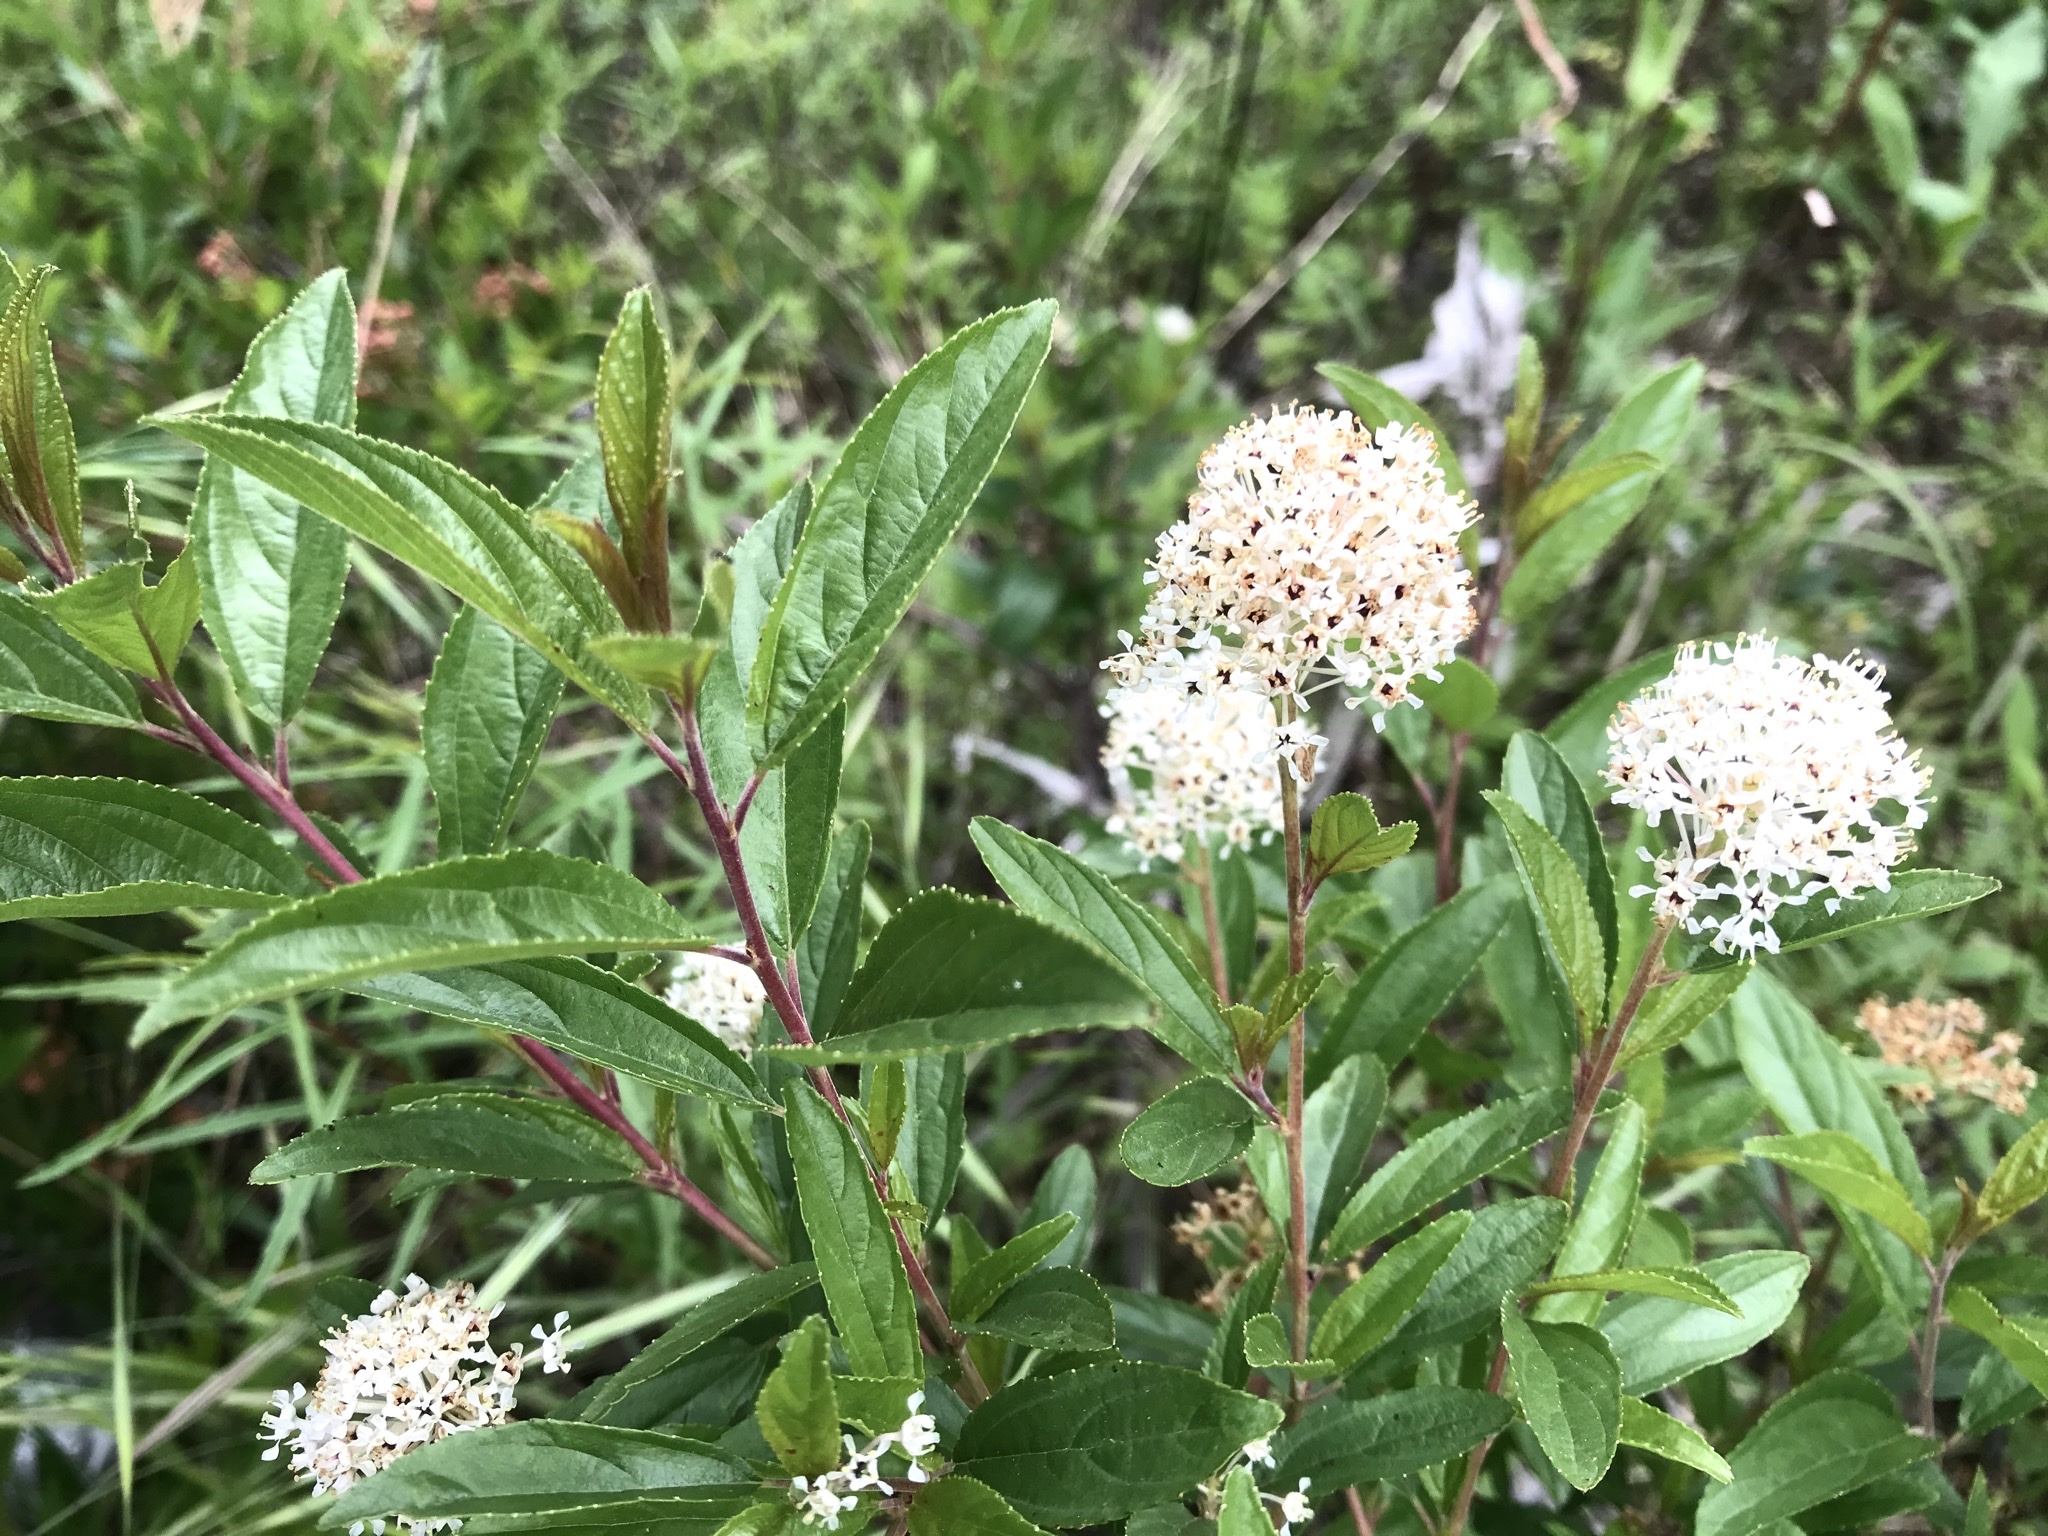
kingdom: Plantae
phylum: Tracheophyta
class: Magnoliopsida
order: Rosales
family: Rhamnaceae
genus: Ceanothus
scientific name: Ceanothus herbaceus
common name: Inland ceanothus
